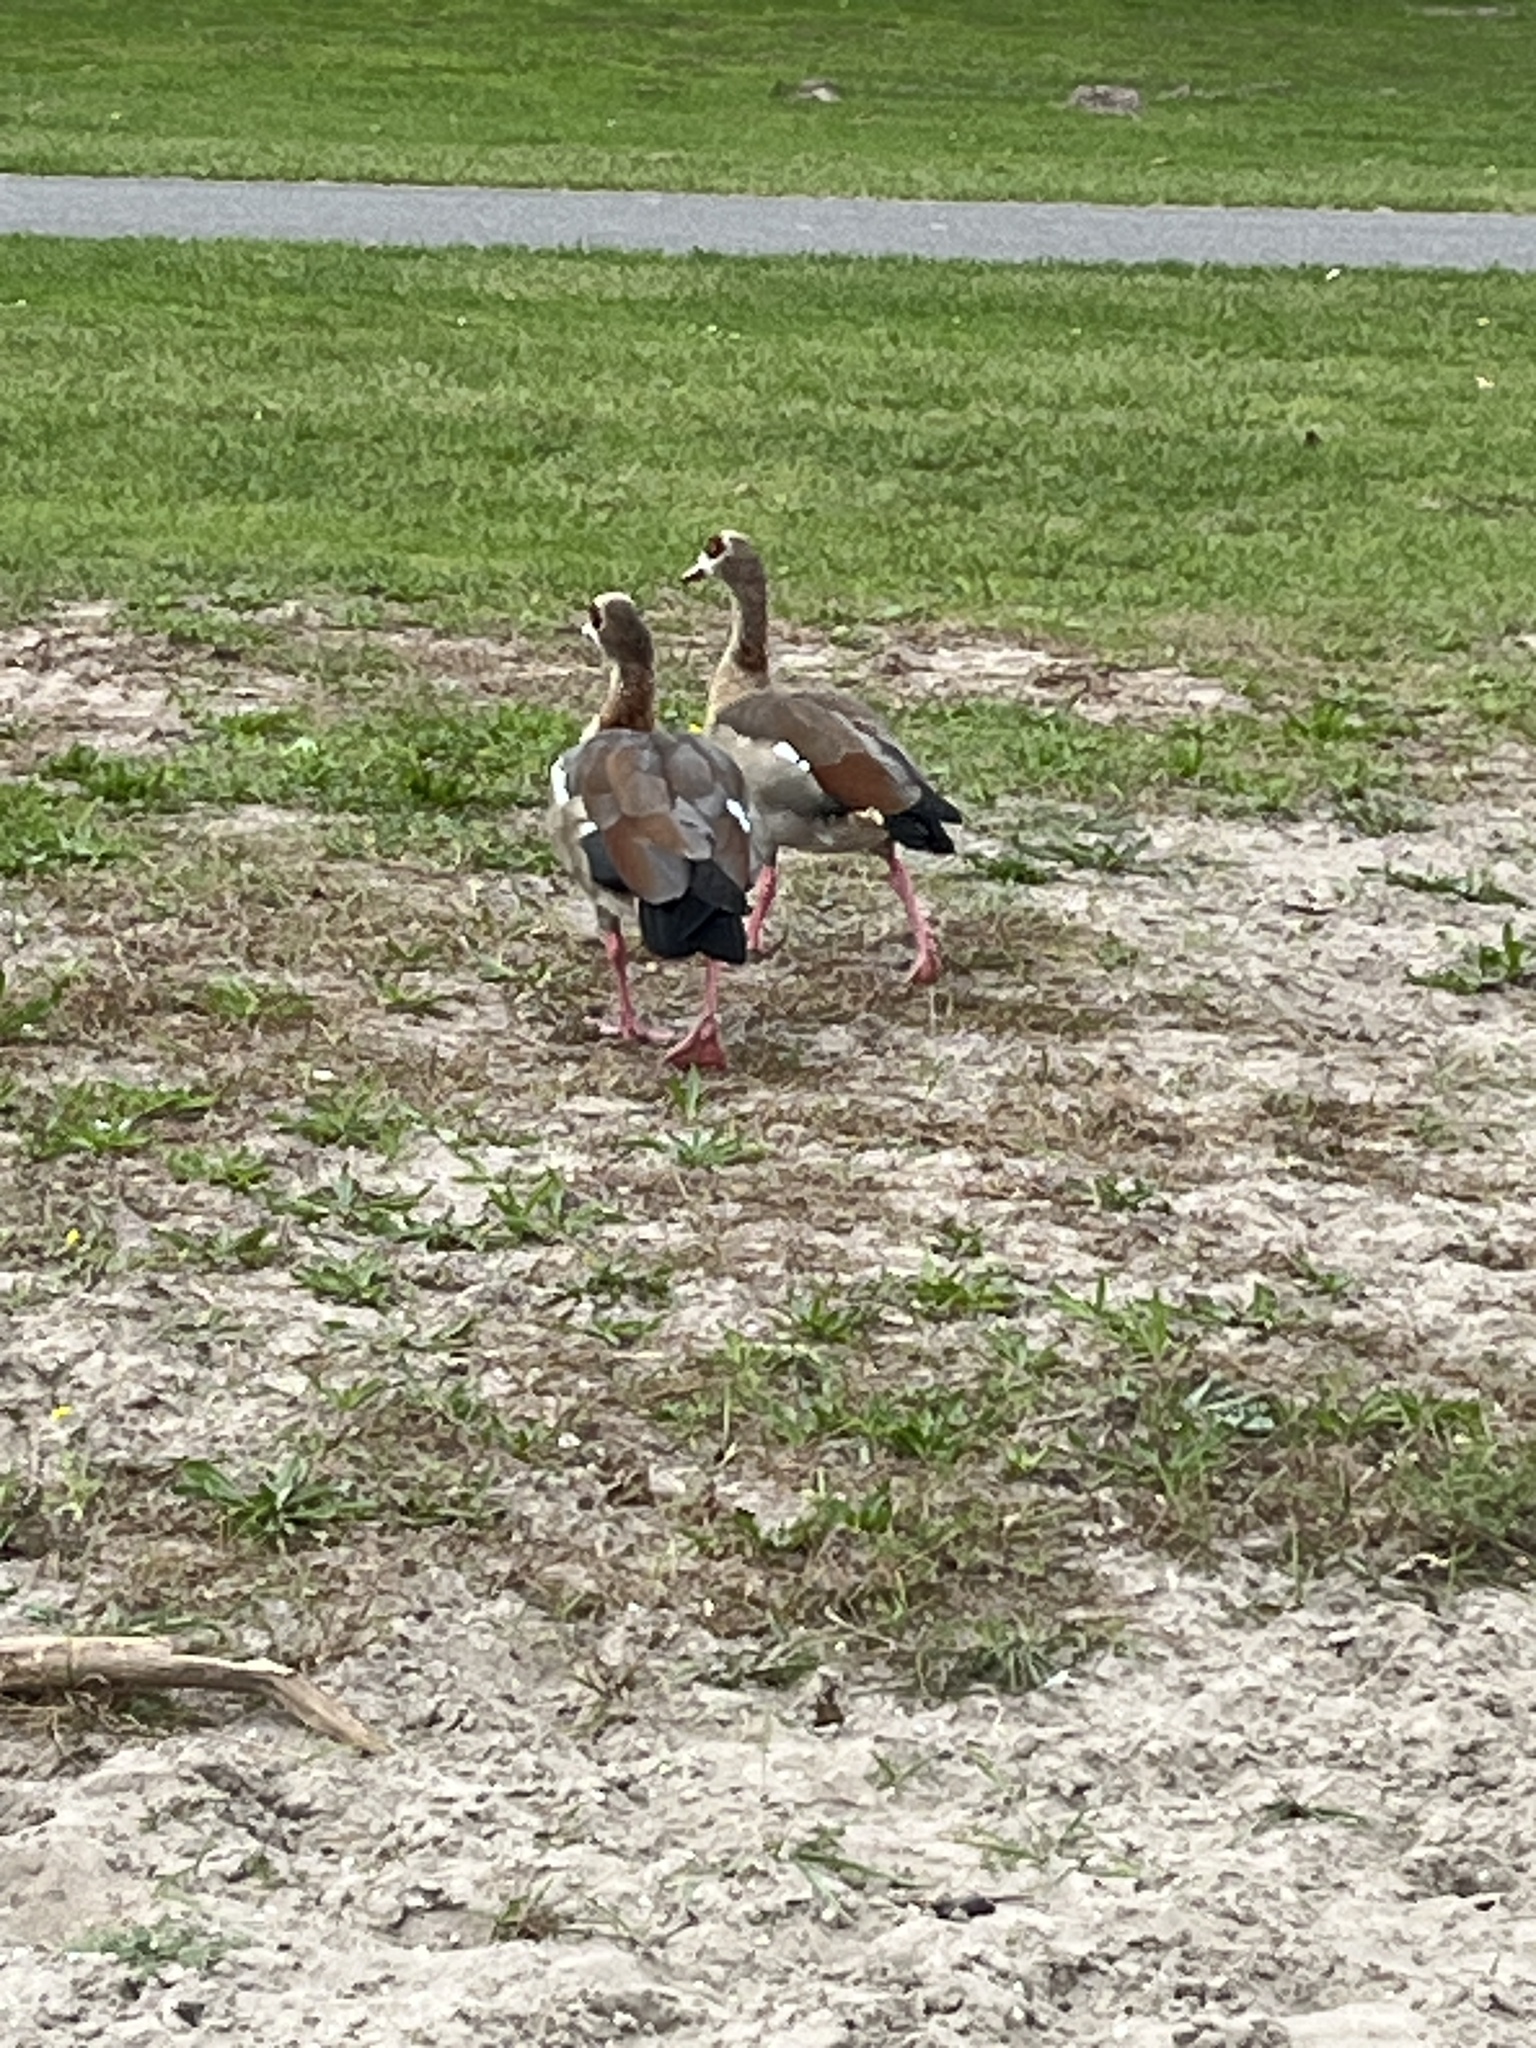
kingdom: Animalia
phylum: Chordata
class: Aves
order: Anseriformes
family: Anatidae
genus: Alopochen
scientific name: Alopochen aegyptiaca
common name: Egyptian goose
